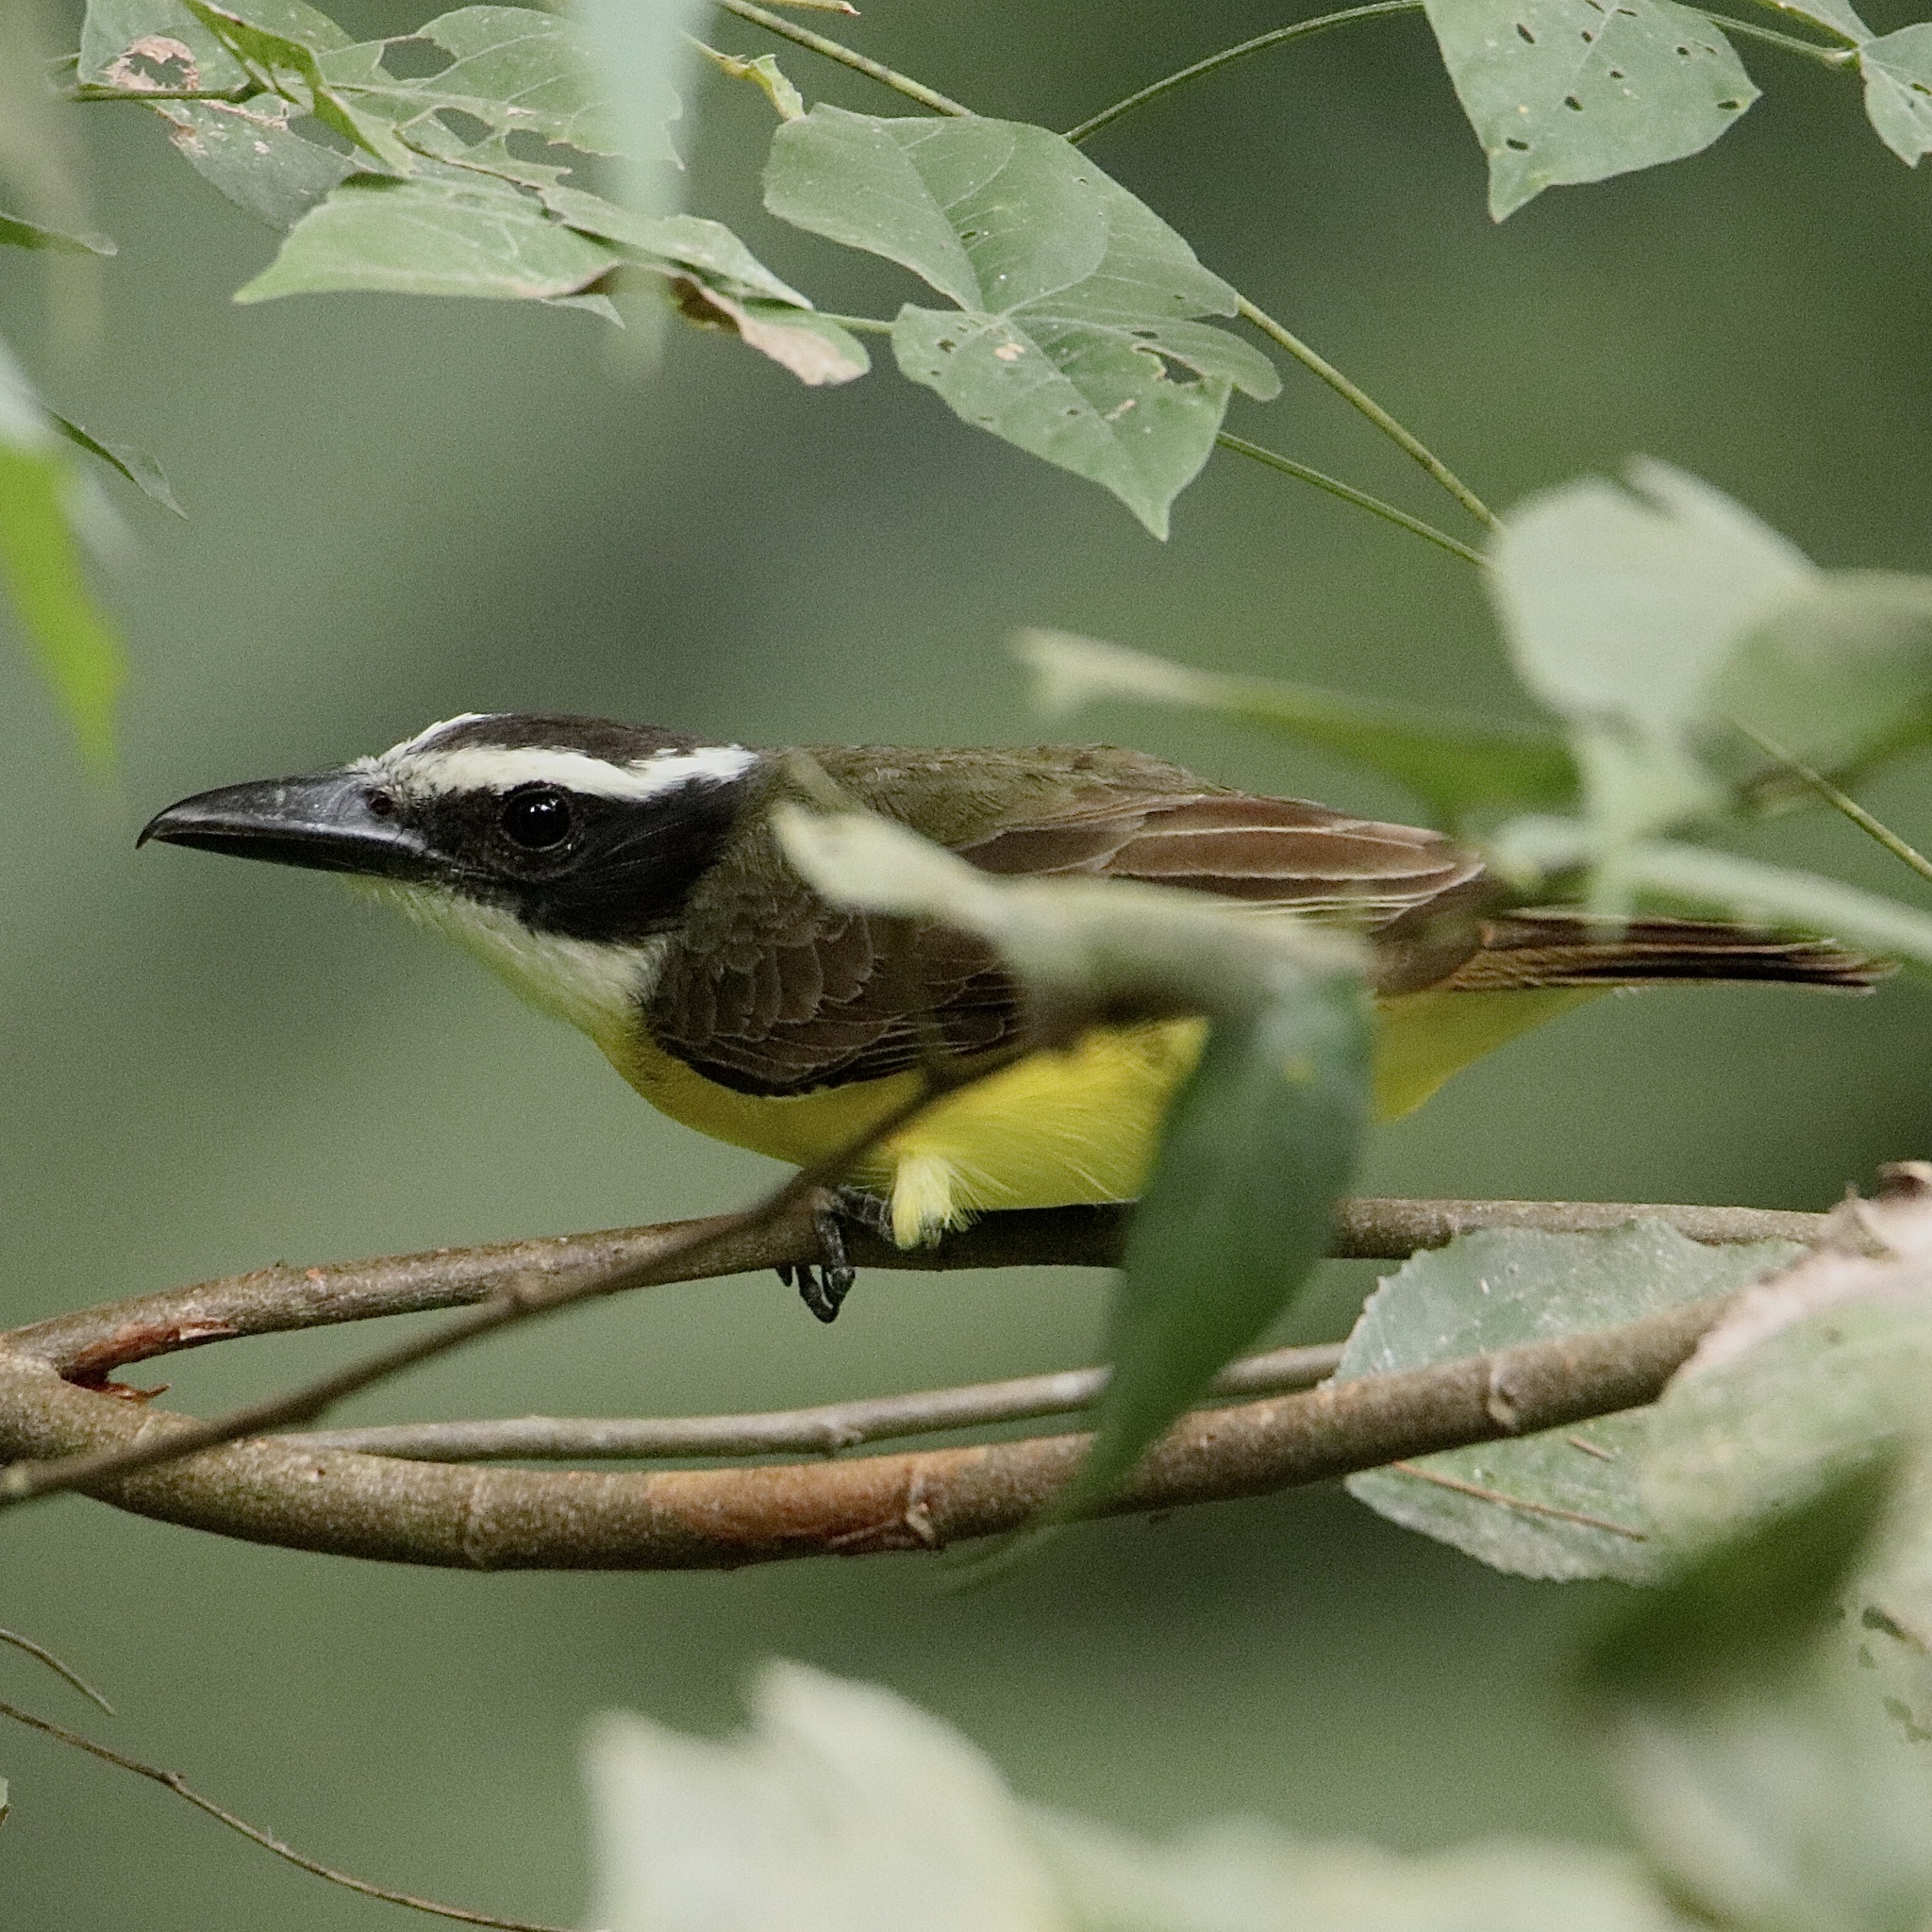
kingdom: Animalia
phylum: Chordata
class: Aves
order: Passeriformes
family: Tyrannidae
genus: Megarynchus
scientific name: Megarynchus pitangua
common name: Boat-billed flycatcher
